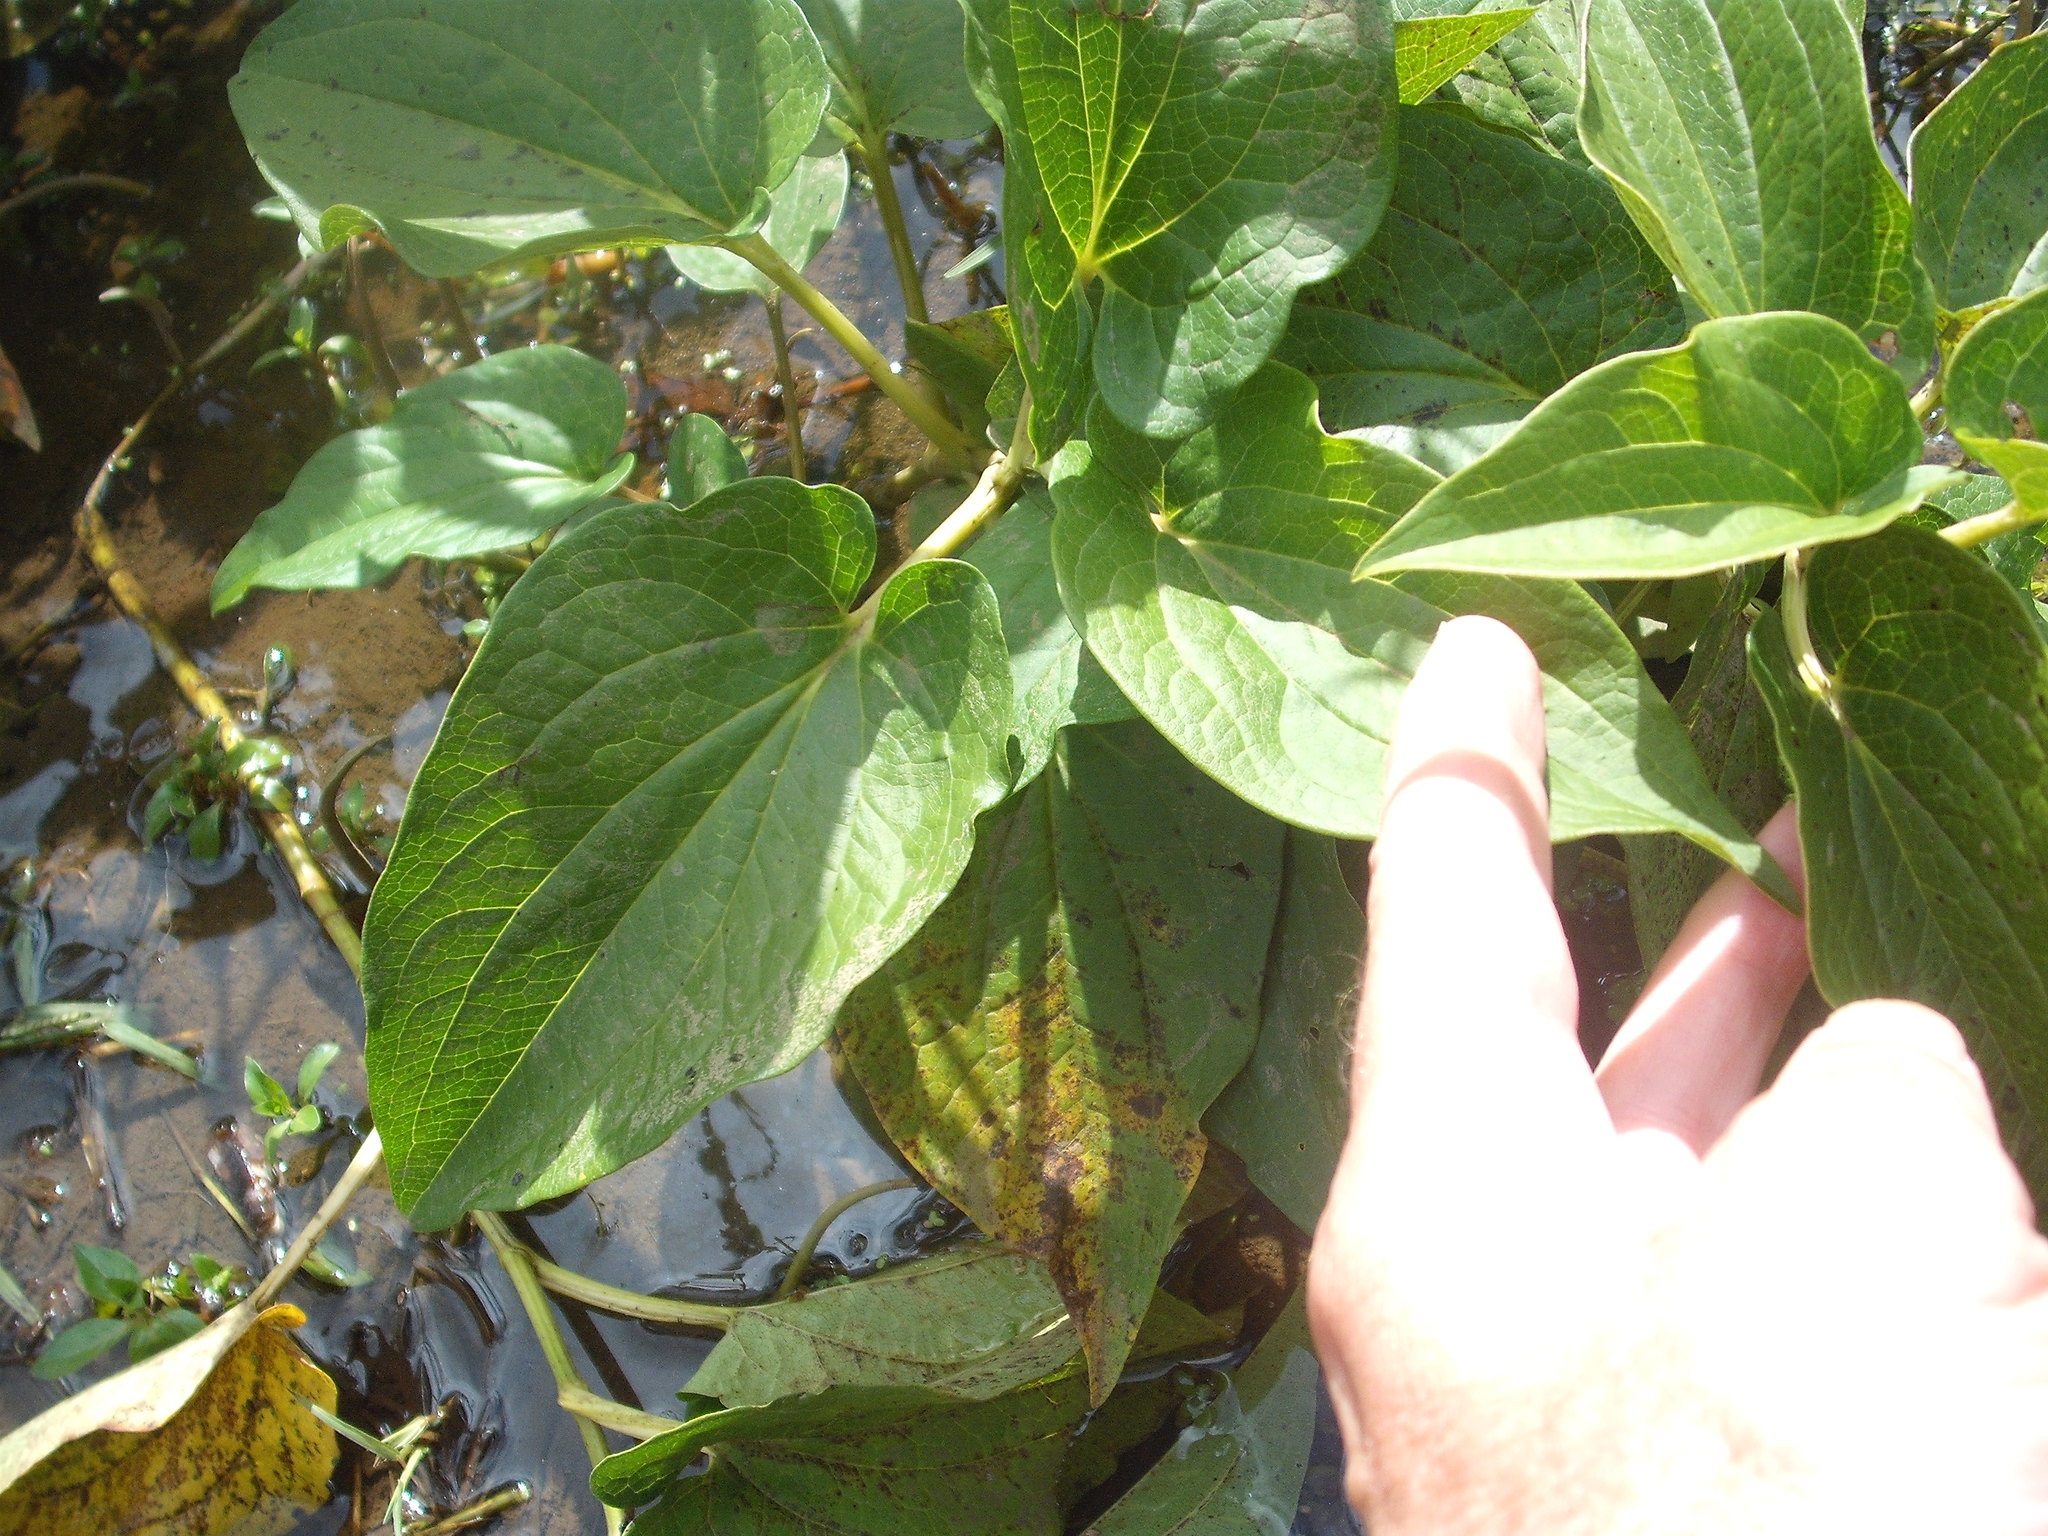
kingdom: Plantae
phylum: Tracheophyta
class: Magnoliopsida
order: Piperales
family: Saururaceae
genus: Saururus
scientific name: Saururus cernuus
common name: Lizard's-tail
